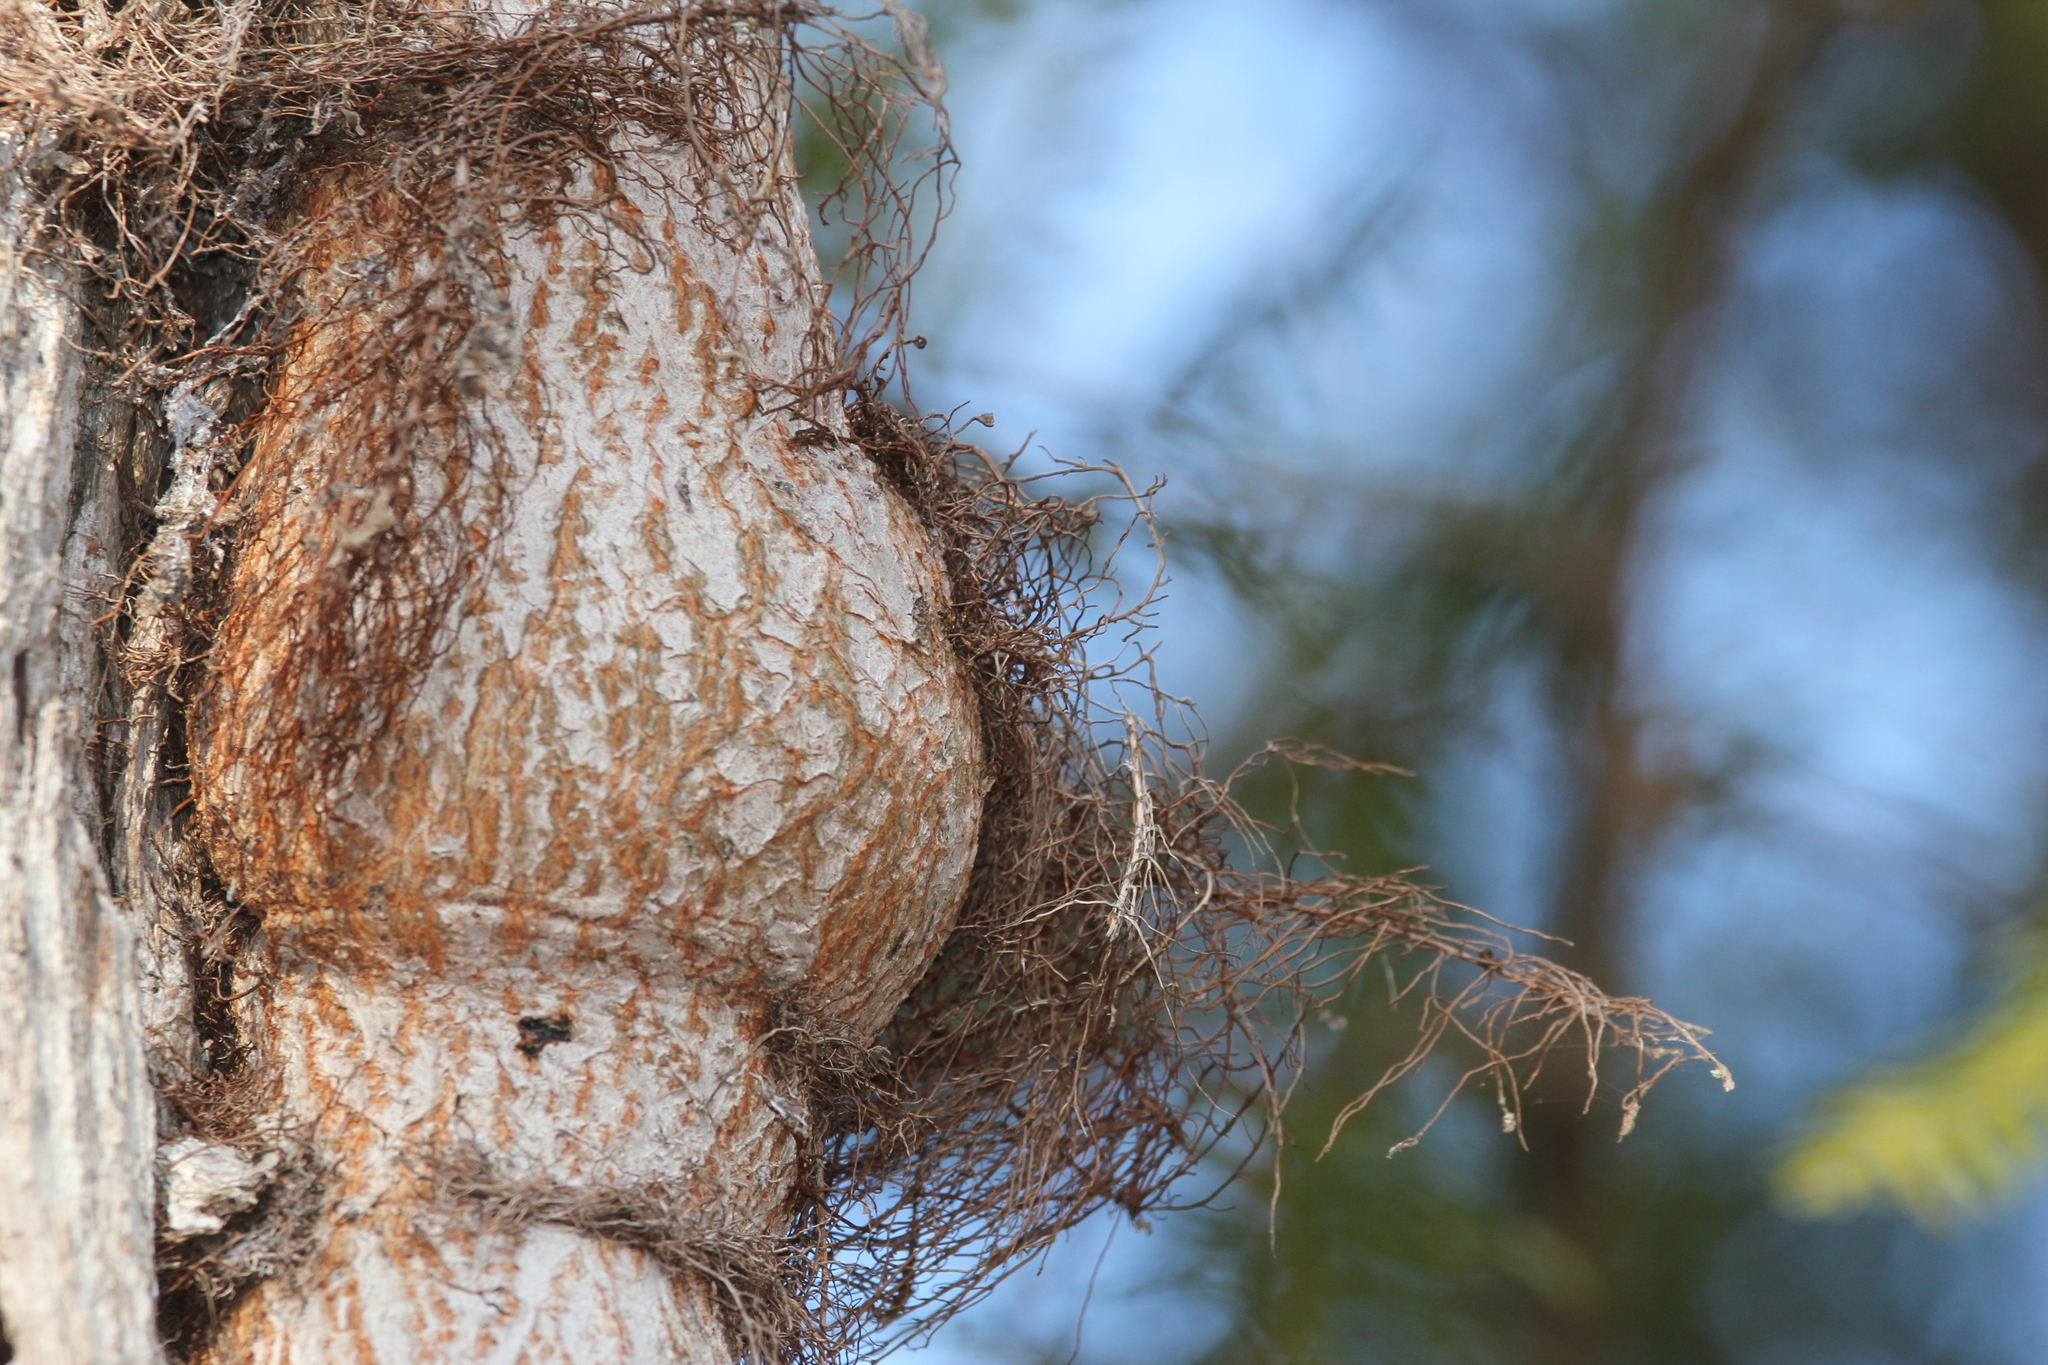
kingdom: Plantae
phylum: Tracheophyta
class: Magnoliopsida
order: Sapindales
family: Anacardiaceae
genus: Toxicodendron
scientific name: Toxicodendron radicans
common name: Poison ivy
